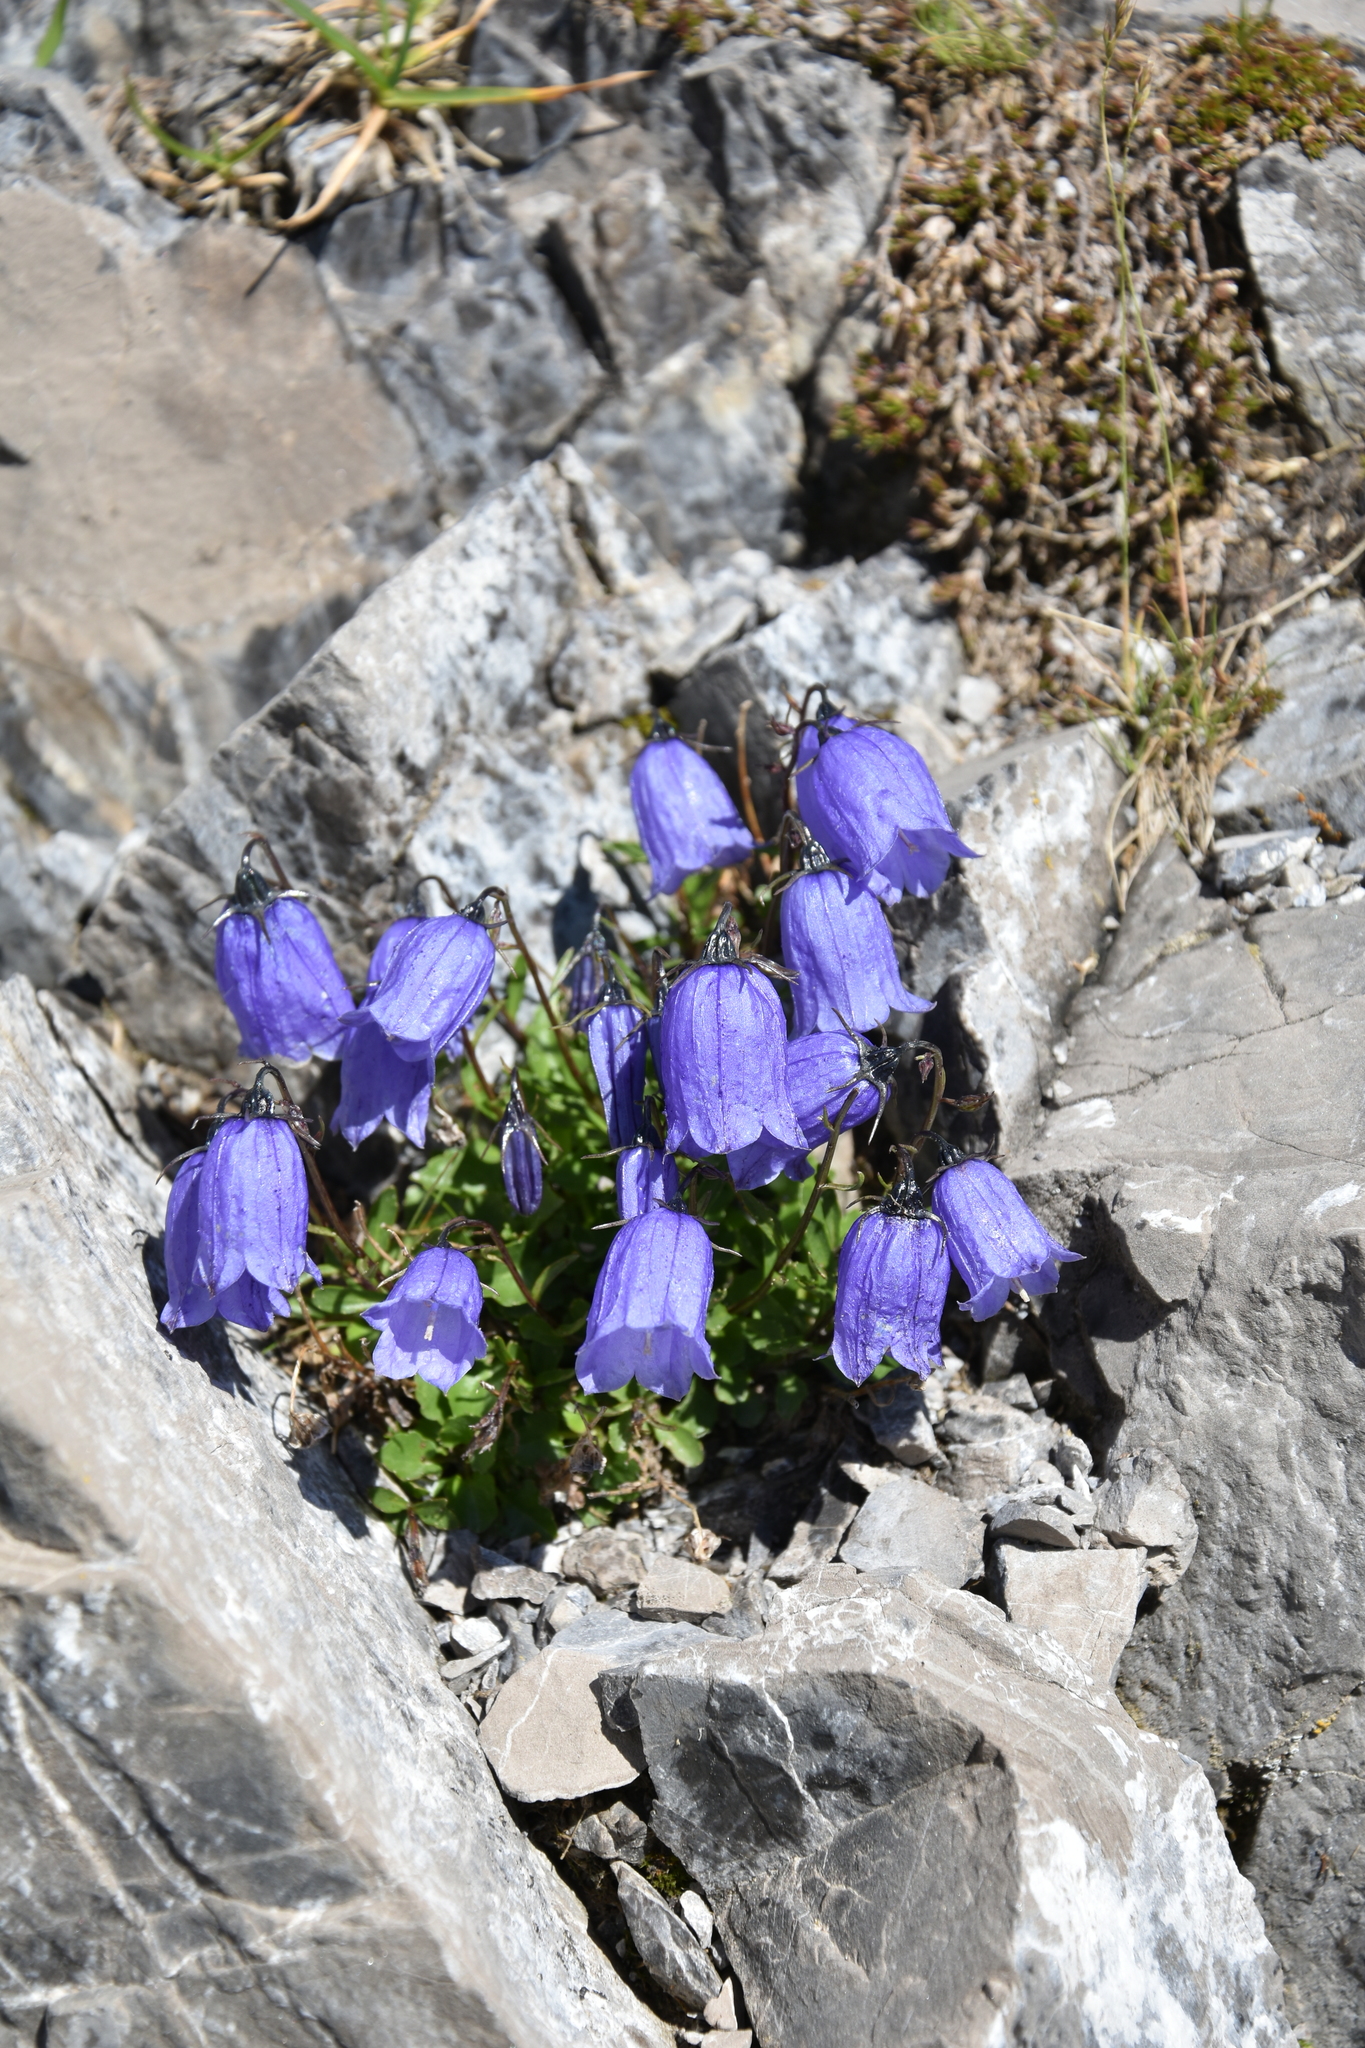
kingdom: Plantae
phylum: Tracheophyta
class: Magnoliopsida
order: Asterales
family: Campanulaceae
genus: Campanula
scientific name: Campanula cochleariifolia
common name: Fairies'-thimbles
